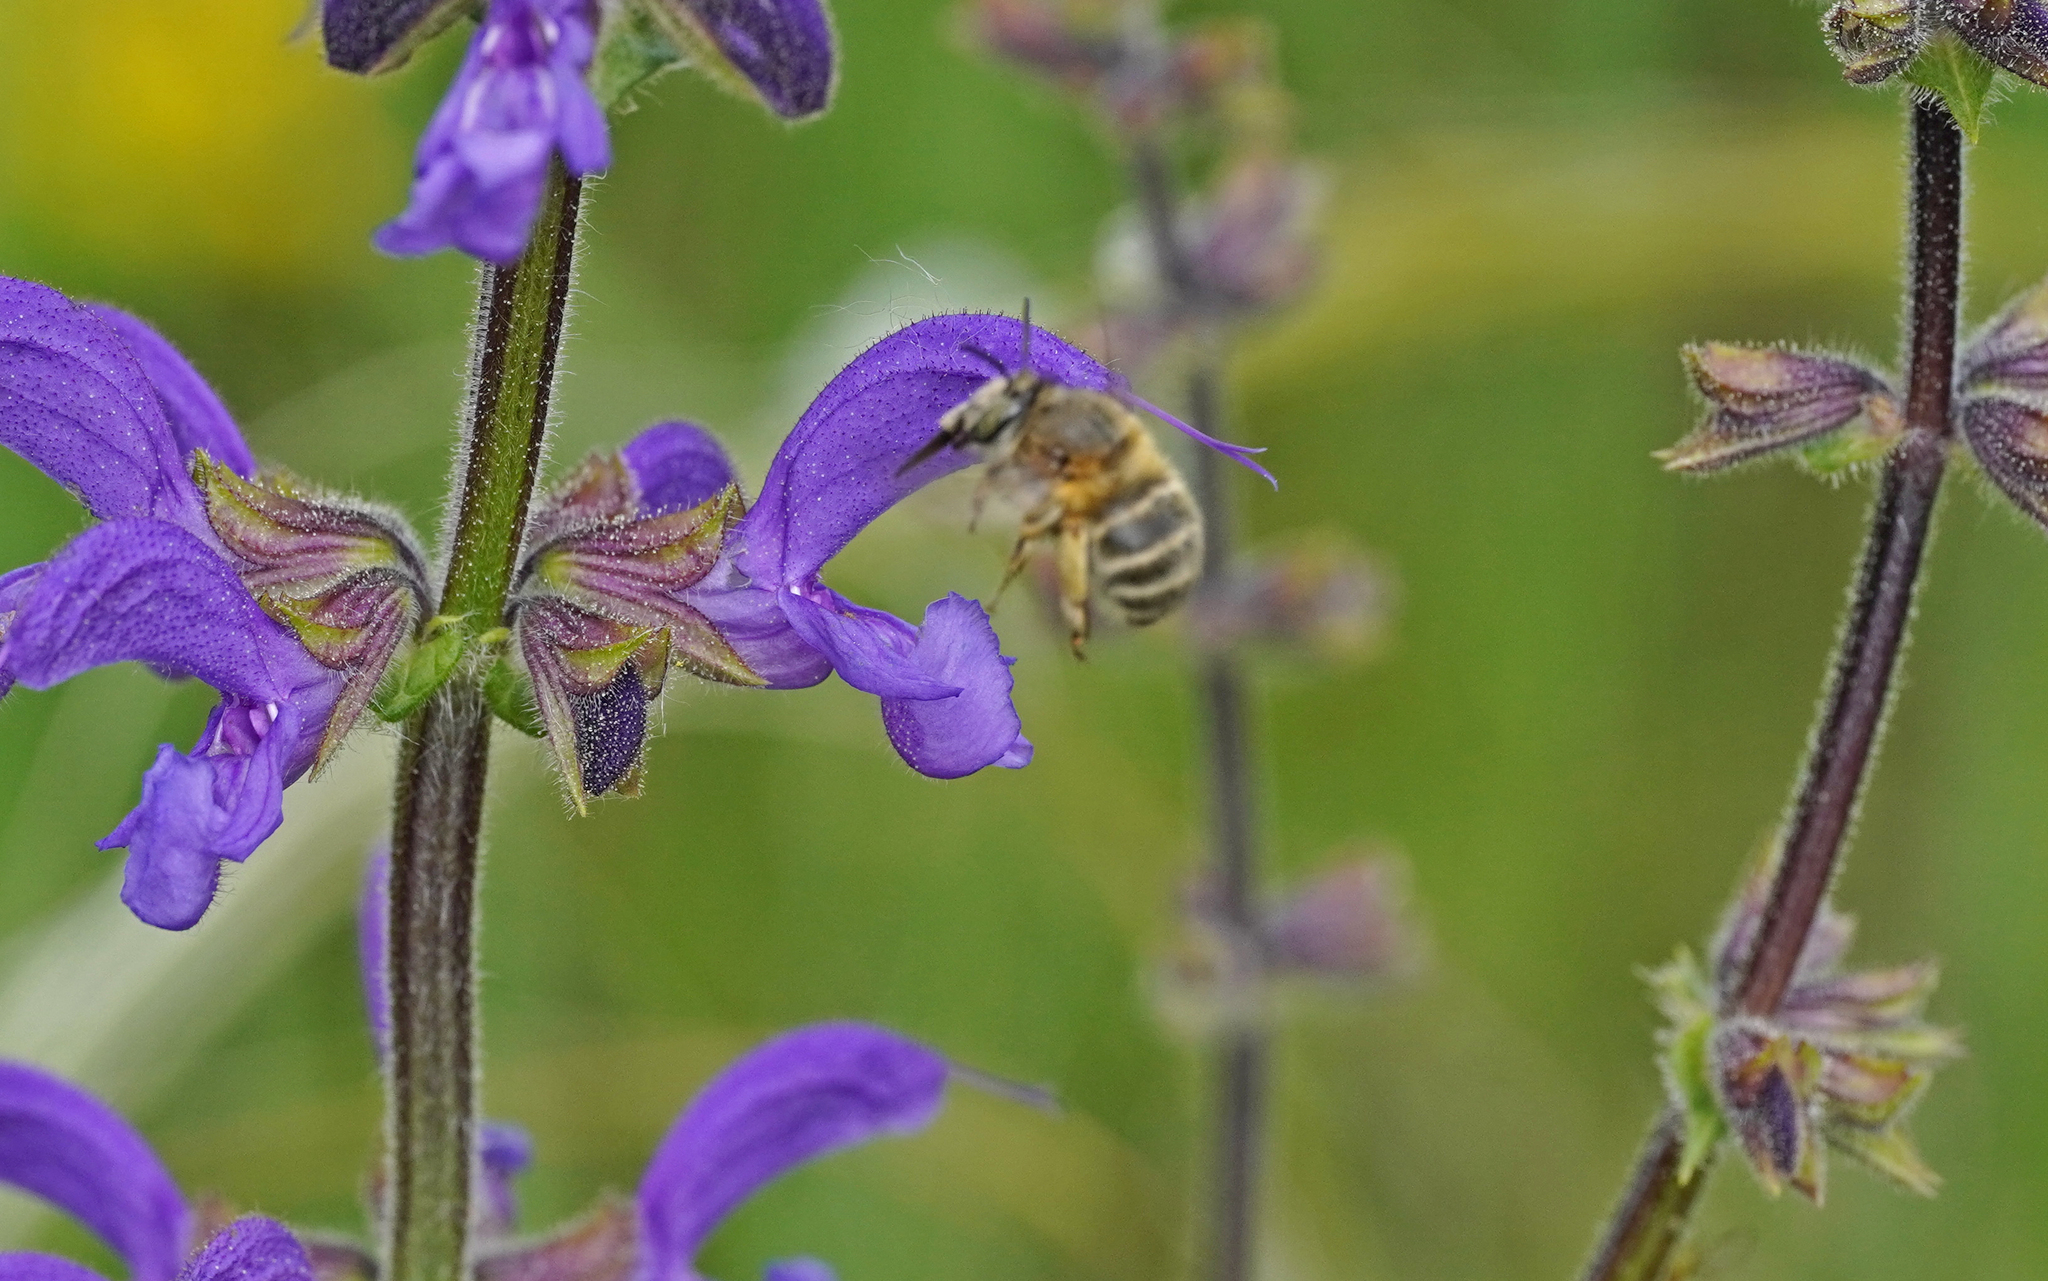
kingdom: Animalia
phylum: Arthropoda
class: Insecta
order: Hymenoptera
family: Apidae
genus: Anthophora
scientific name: Anthophora crinipes
